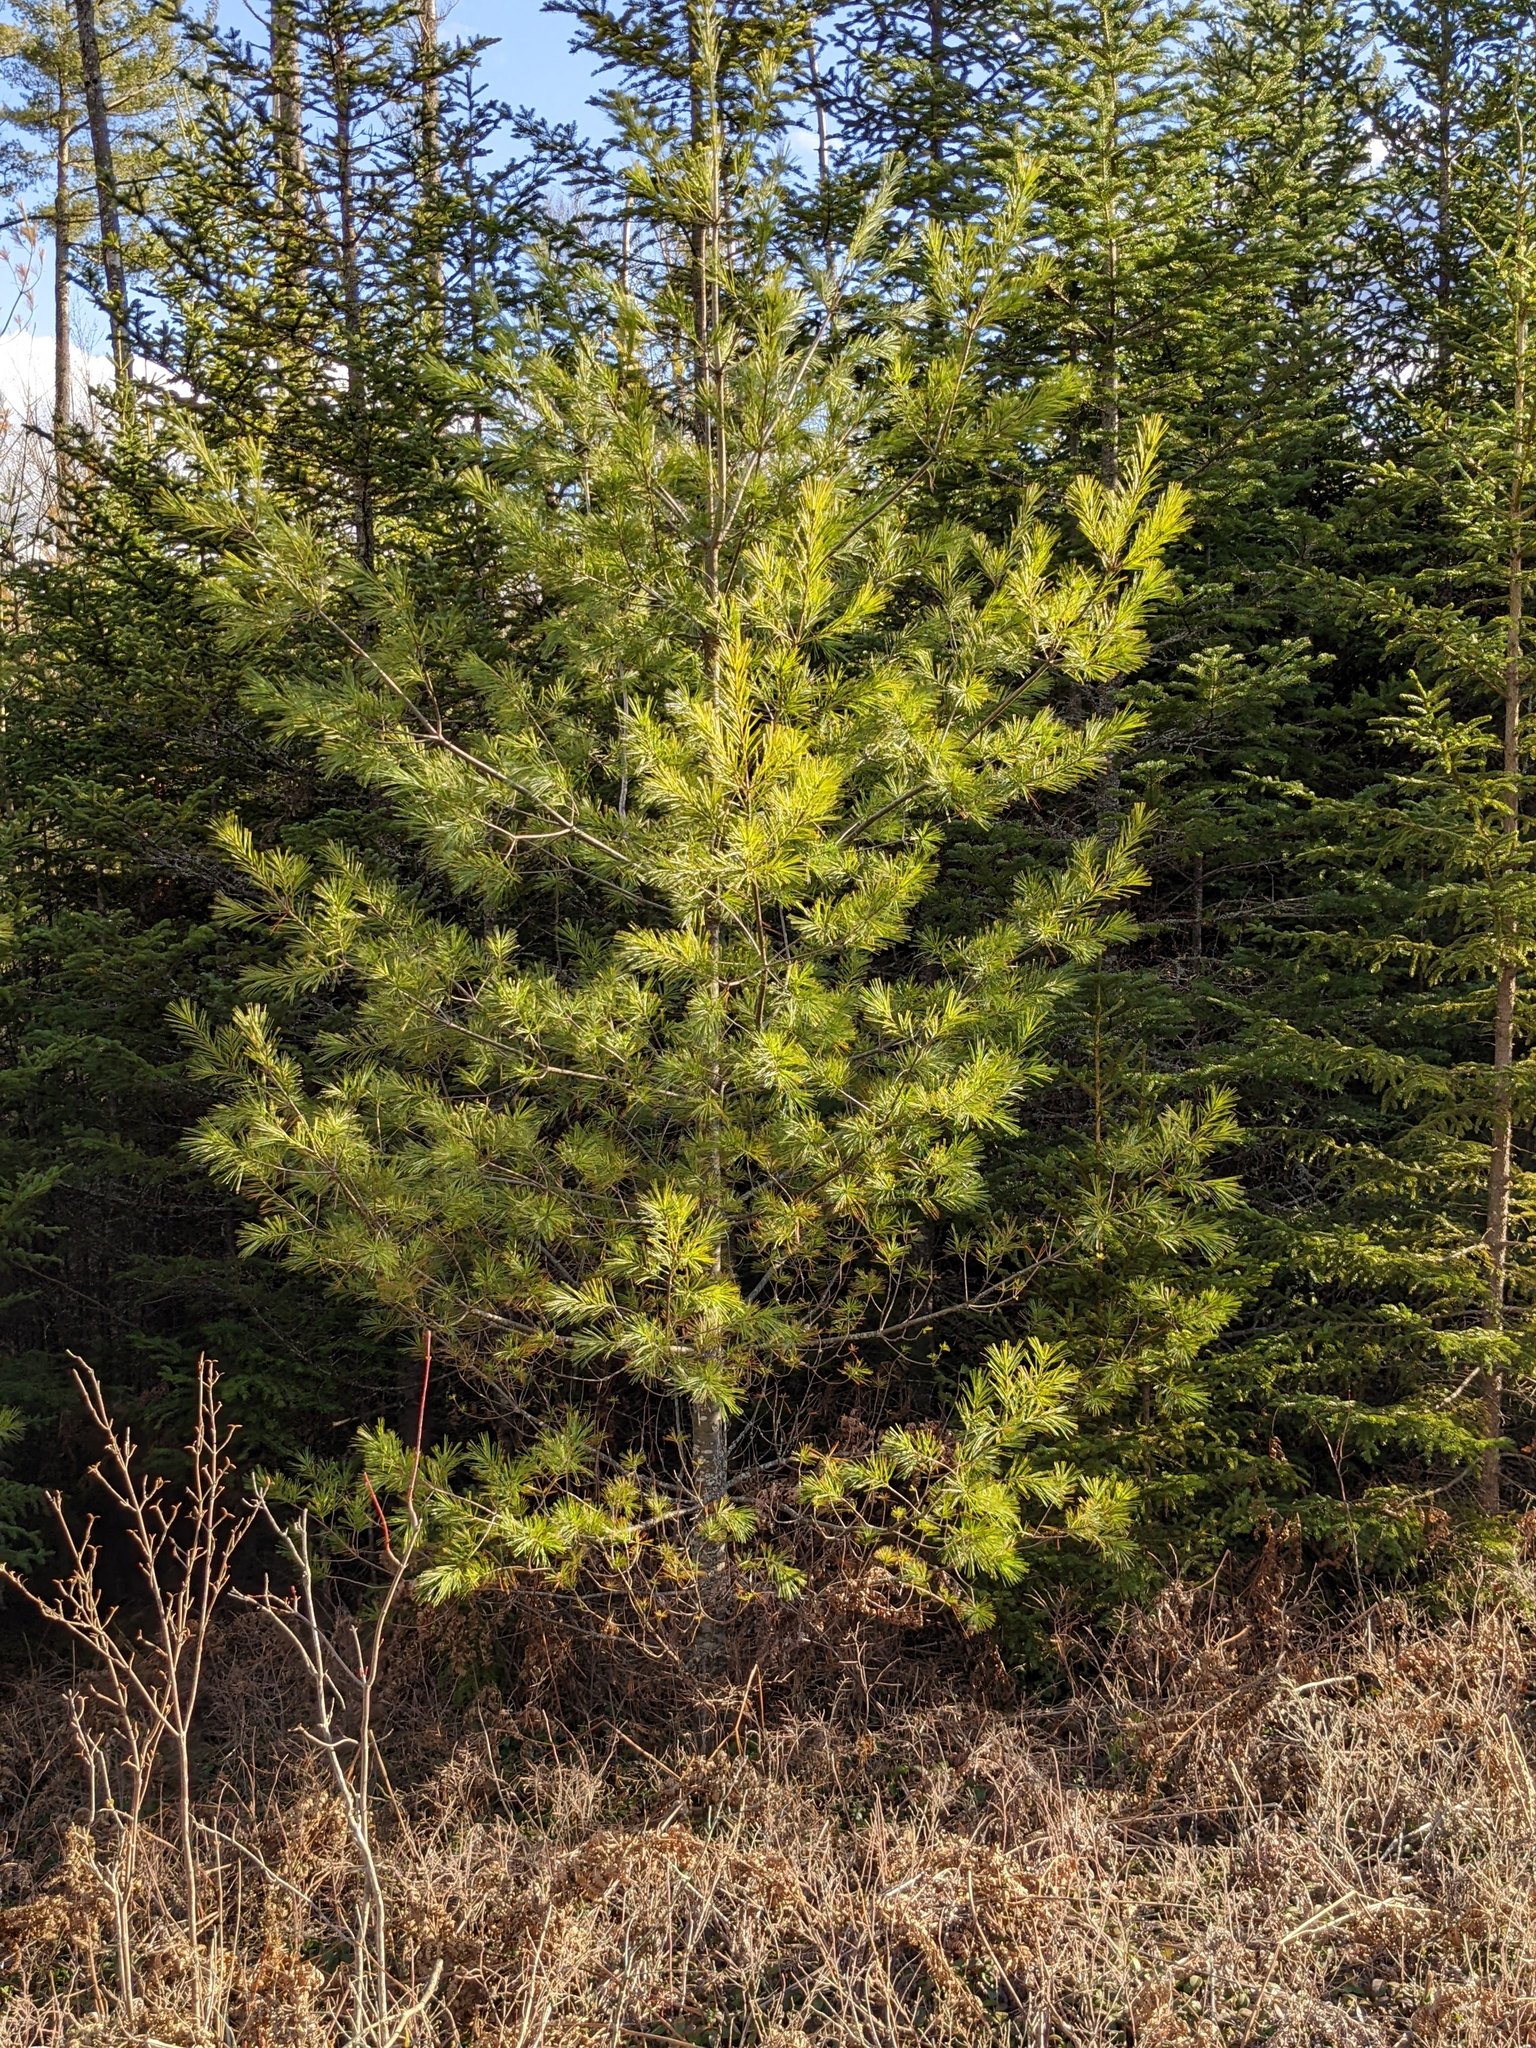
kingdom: Plantae
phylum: Tracheophyta
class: Pinopsida
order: Pinales
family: Pinaceae
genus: Pinus
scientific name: Pinus strobus
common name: Weymouth pine
